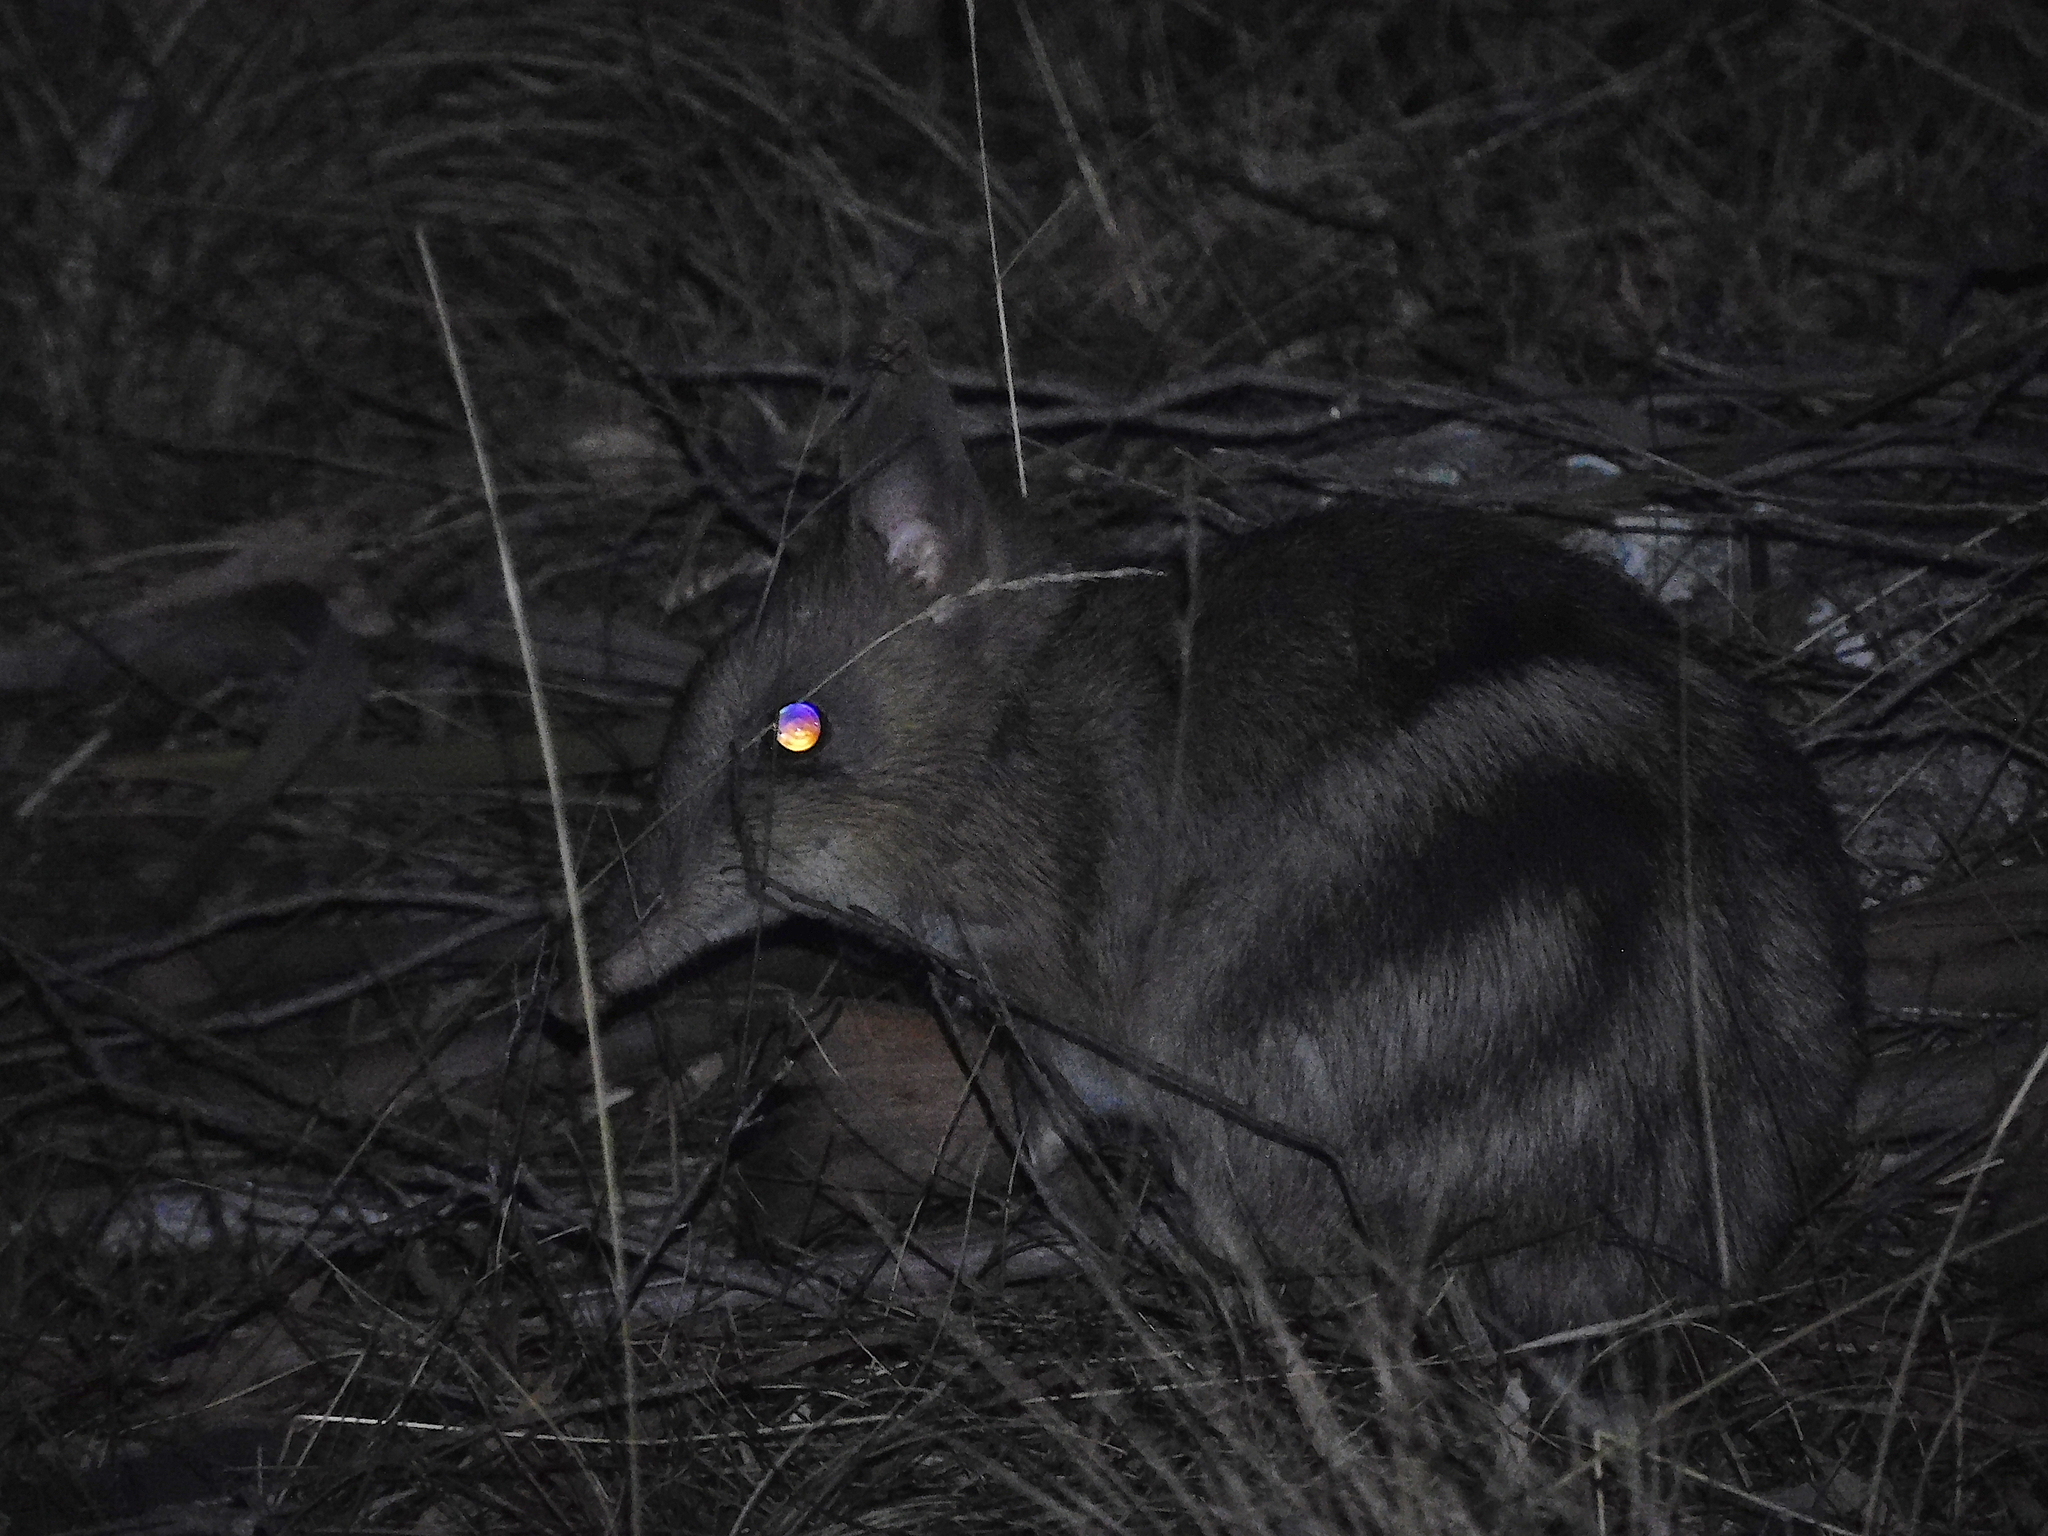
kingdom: Animalia
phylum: Chordata
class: Mammalia
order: Peramelemorphia
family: Peramelidae
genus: Perameles
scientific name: Perameles gunnii
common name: Eastern barred bandicoot
